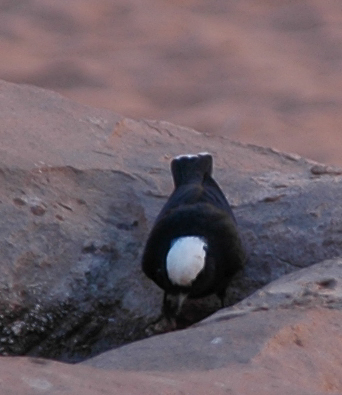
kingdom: Animalia
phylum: Chordata
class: Aves
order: Passeriformes
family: Muscicapidae
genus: Oenanthe
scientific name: Oenanthe leucopyga
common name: White-crowned wheatear
